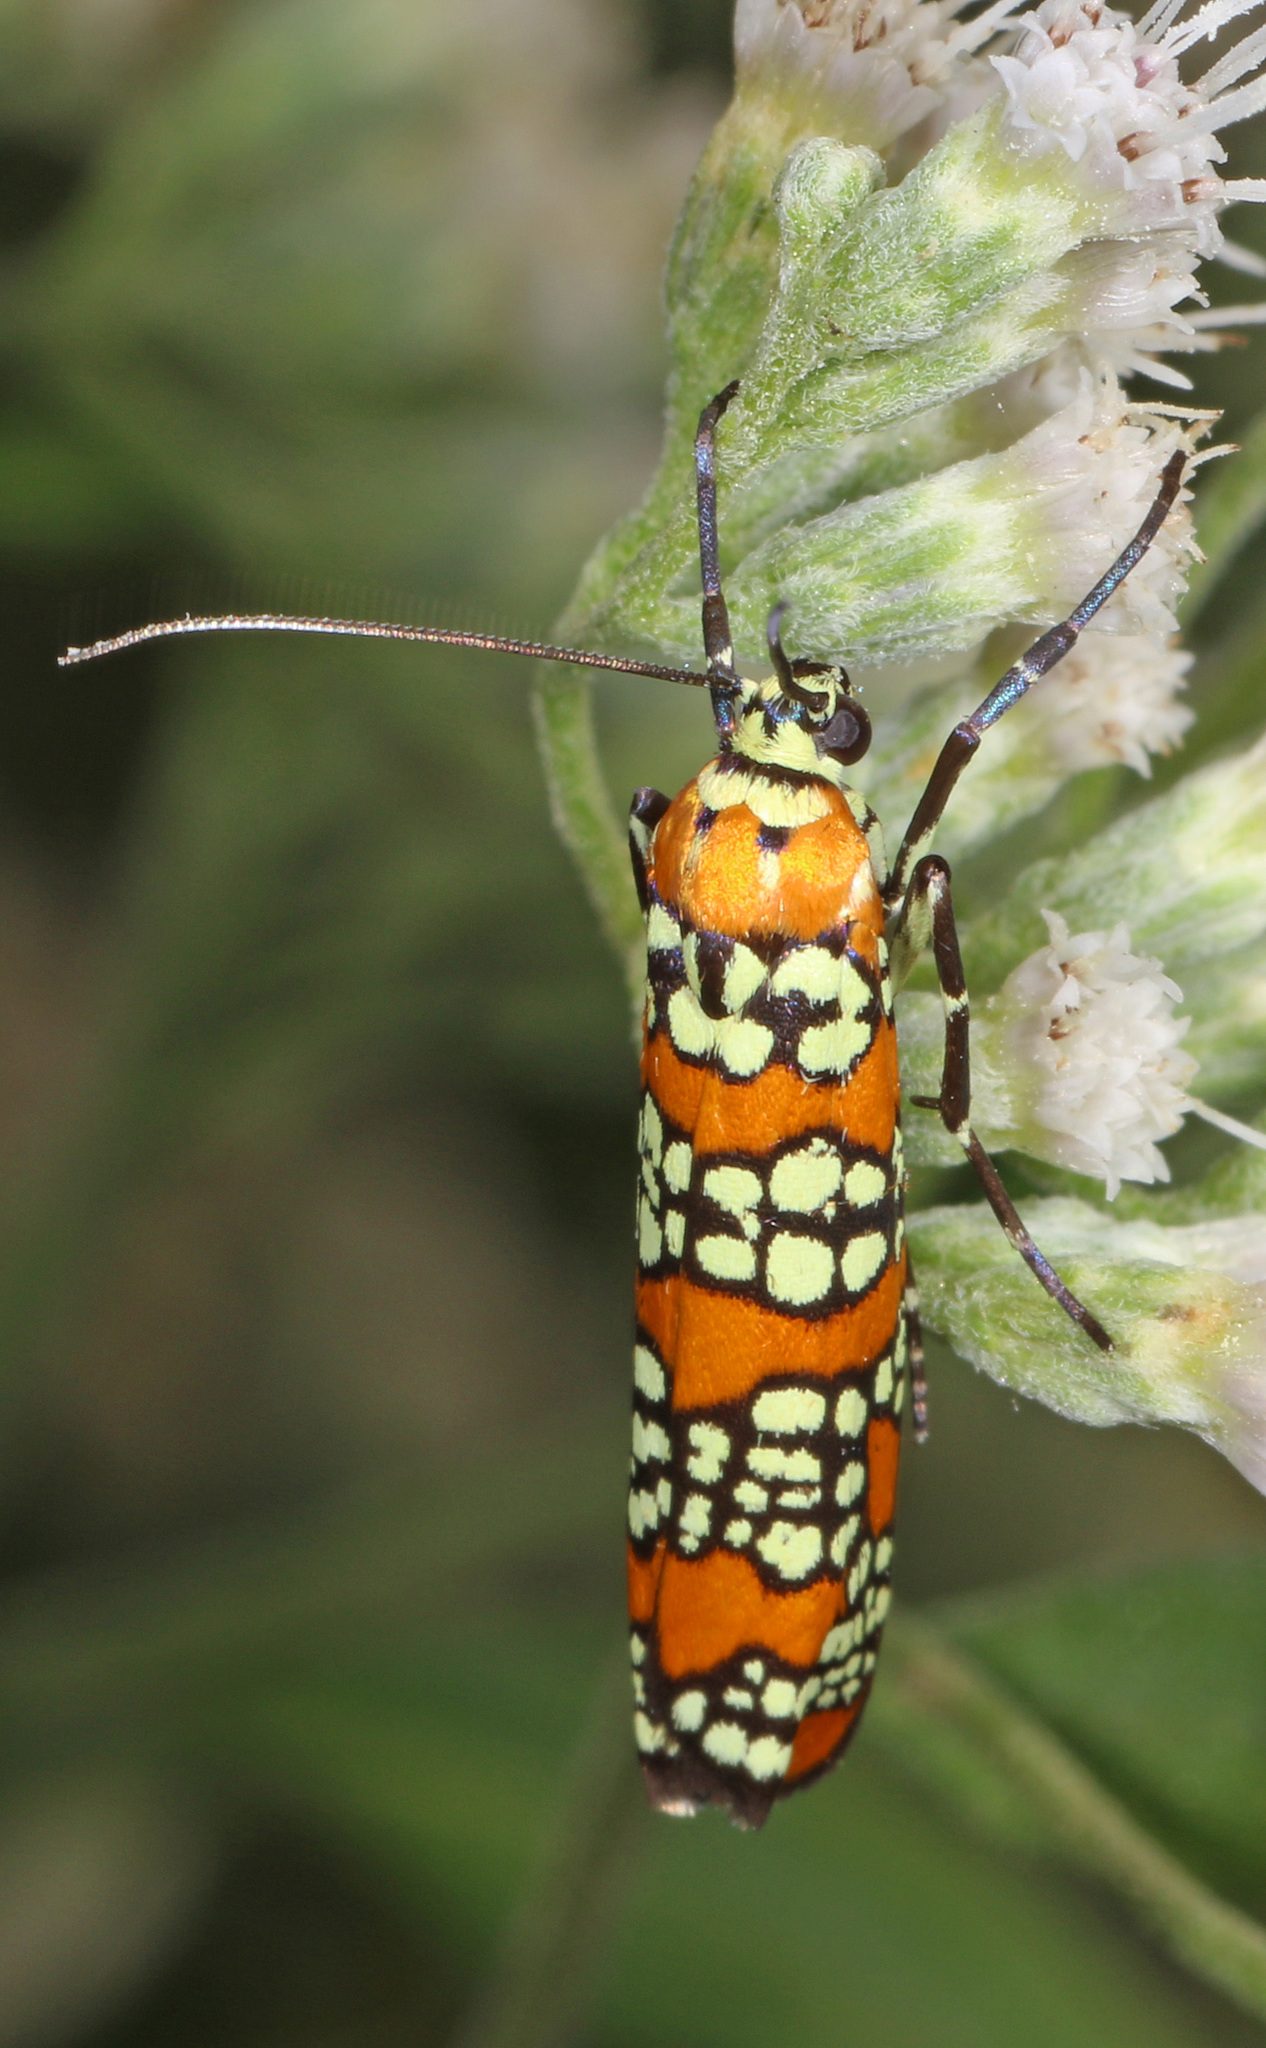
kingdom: Animalia
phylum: Arthropoda
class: Insecta
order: Lepidoptera
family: Attevidae
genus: Atteva
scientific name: Atteva punctella
